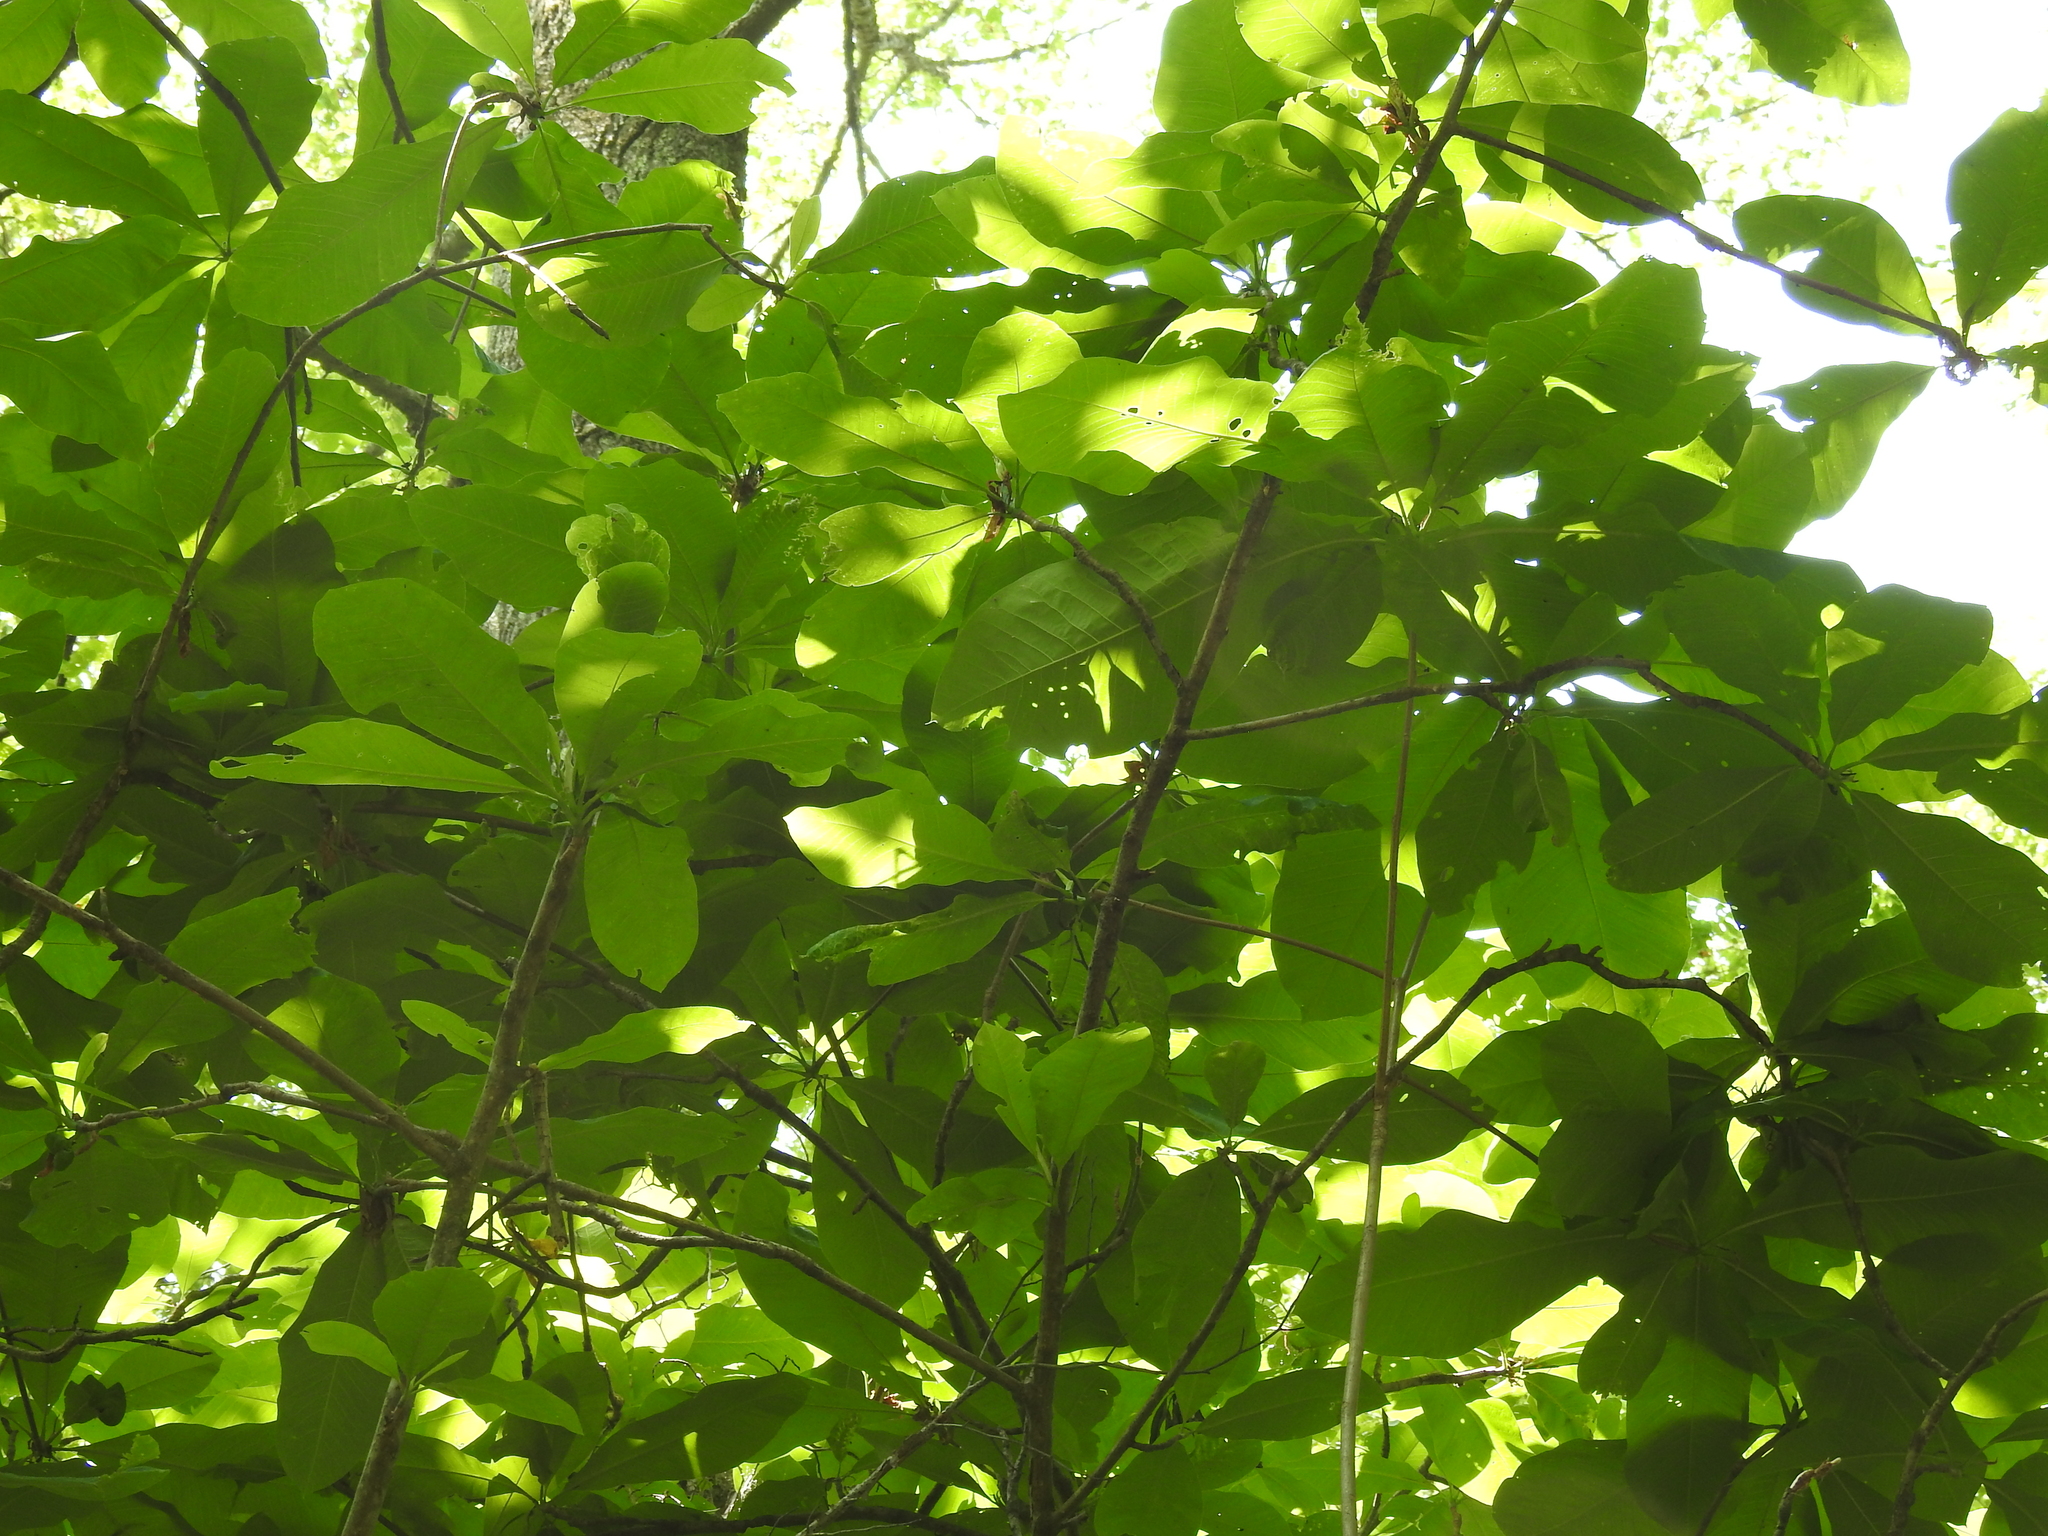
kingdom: Plantae
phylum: Tracheophyta
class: Magnoliopsida
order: Magnoliales
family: Magnoliaceae
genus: Magnolia
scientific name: Magnolia tripetala
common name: Umbrella magnolia
